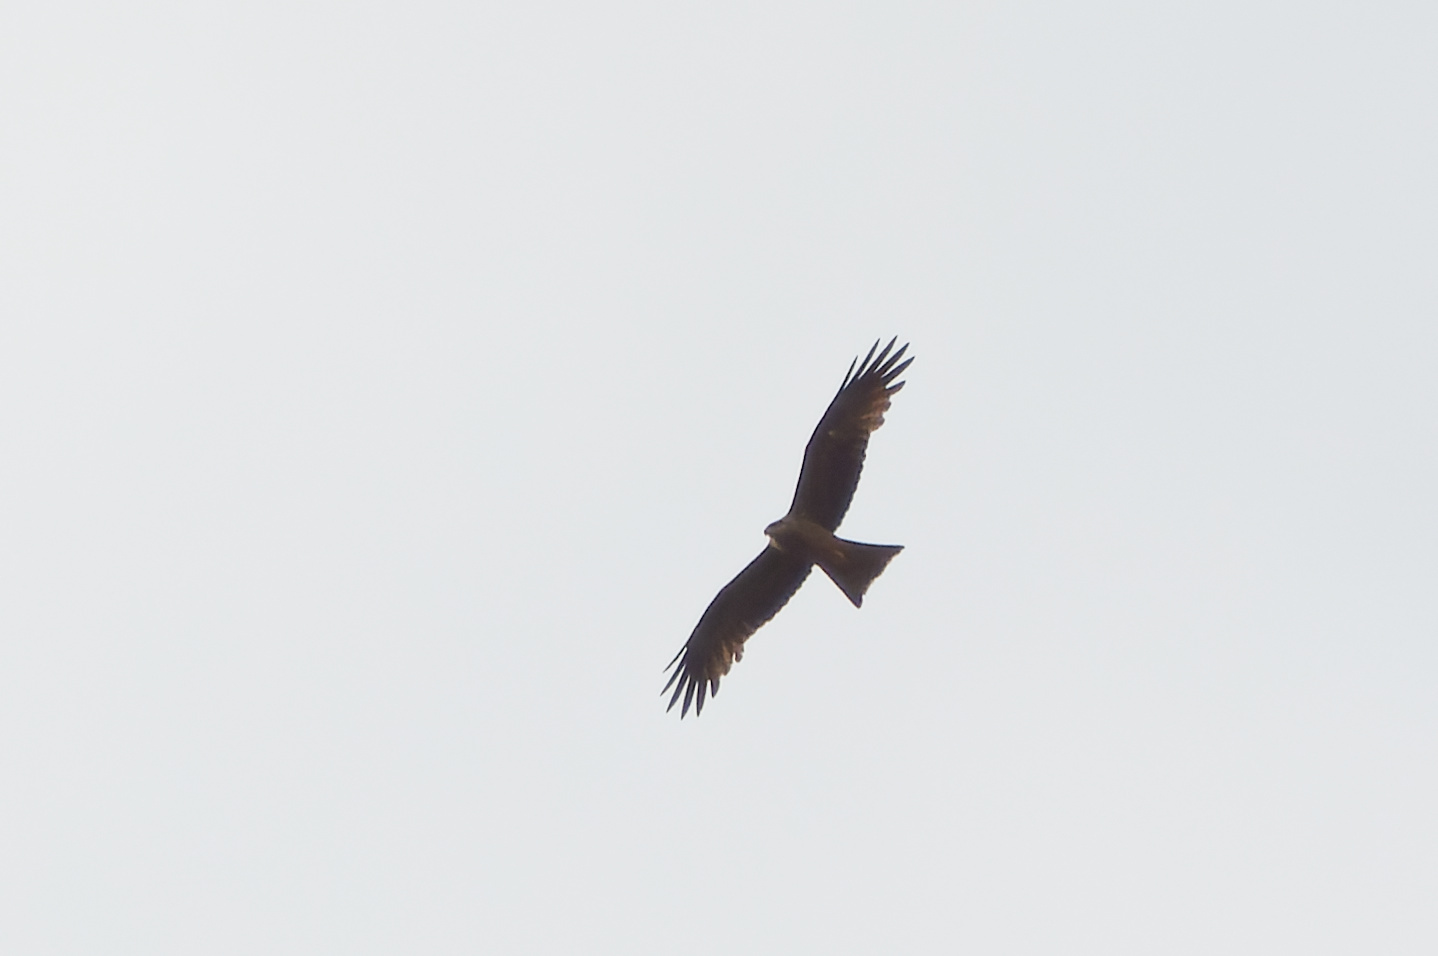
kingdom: Animalia
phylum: Chordata
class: Aves
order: Accipitriformes
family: Accipitridae
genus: Milvus
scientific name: Milvus migrans
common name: Black kite
